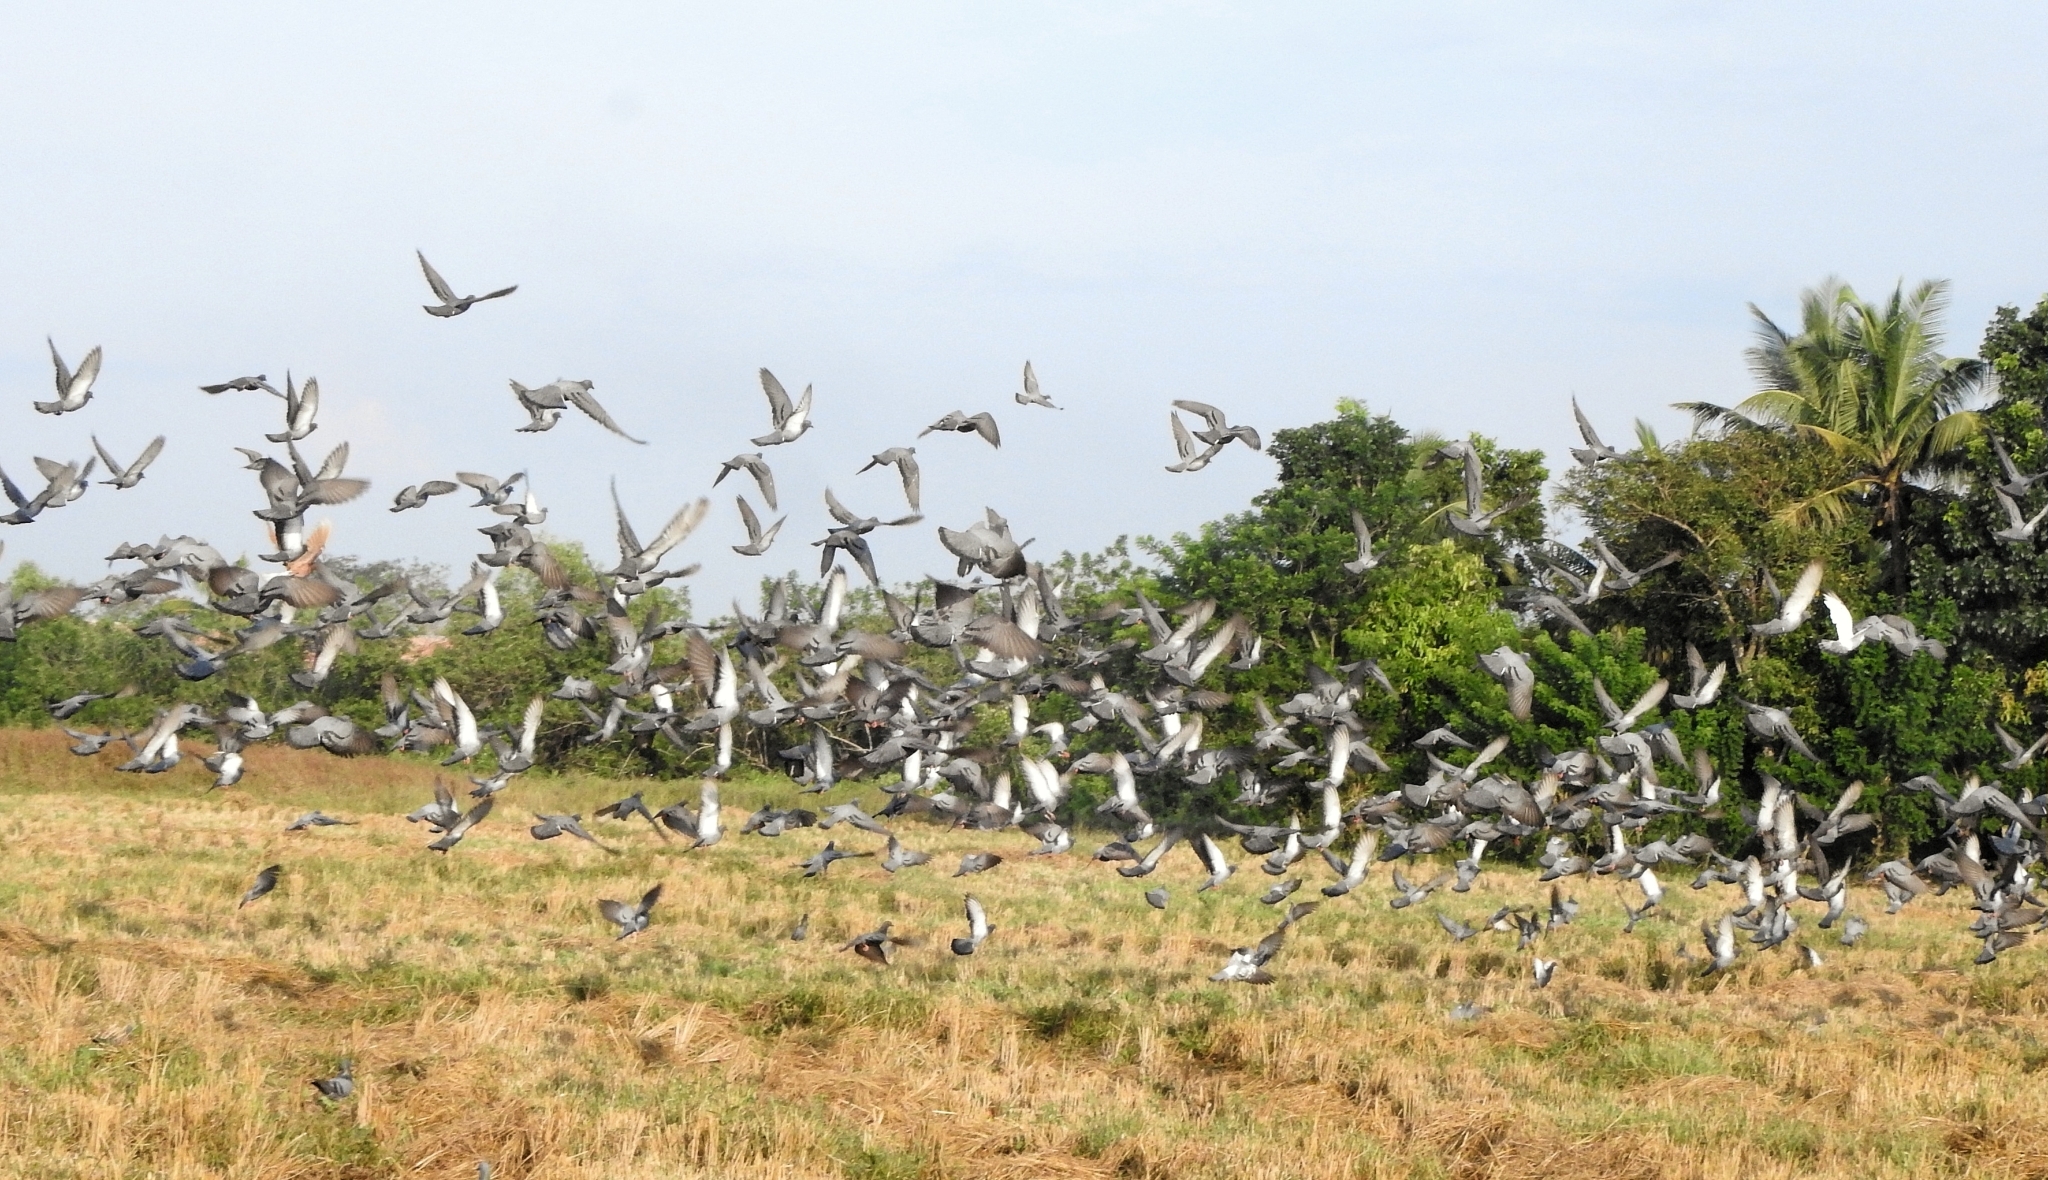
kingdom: Animalia
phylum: Chordata
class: Aves
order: Columbiformes
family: Columbidae
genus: Columba
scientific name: Columba livia
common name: Rock pigeon
